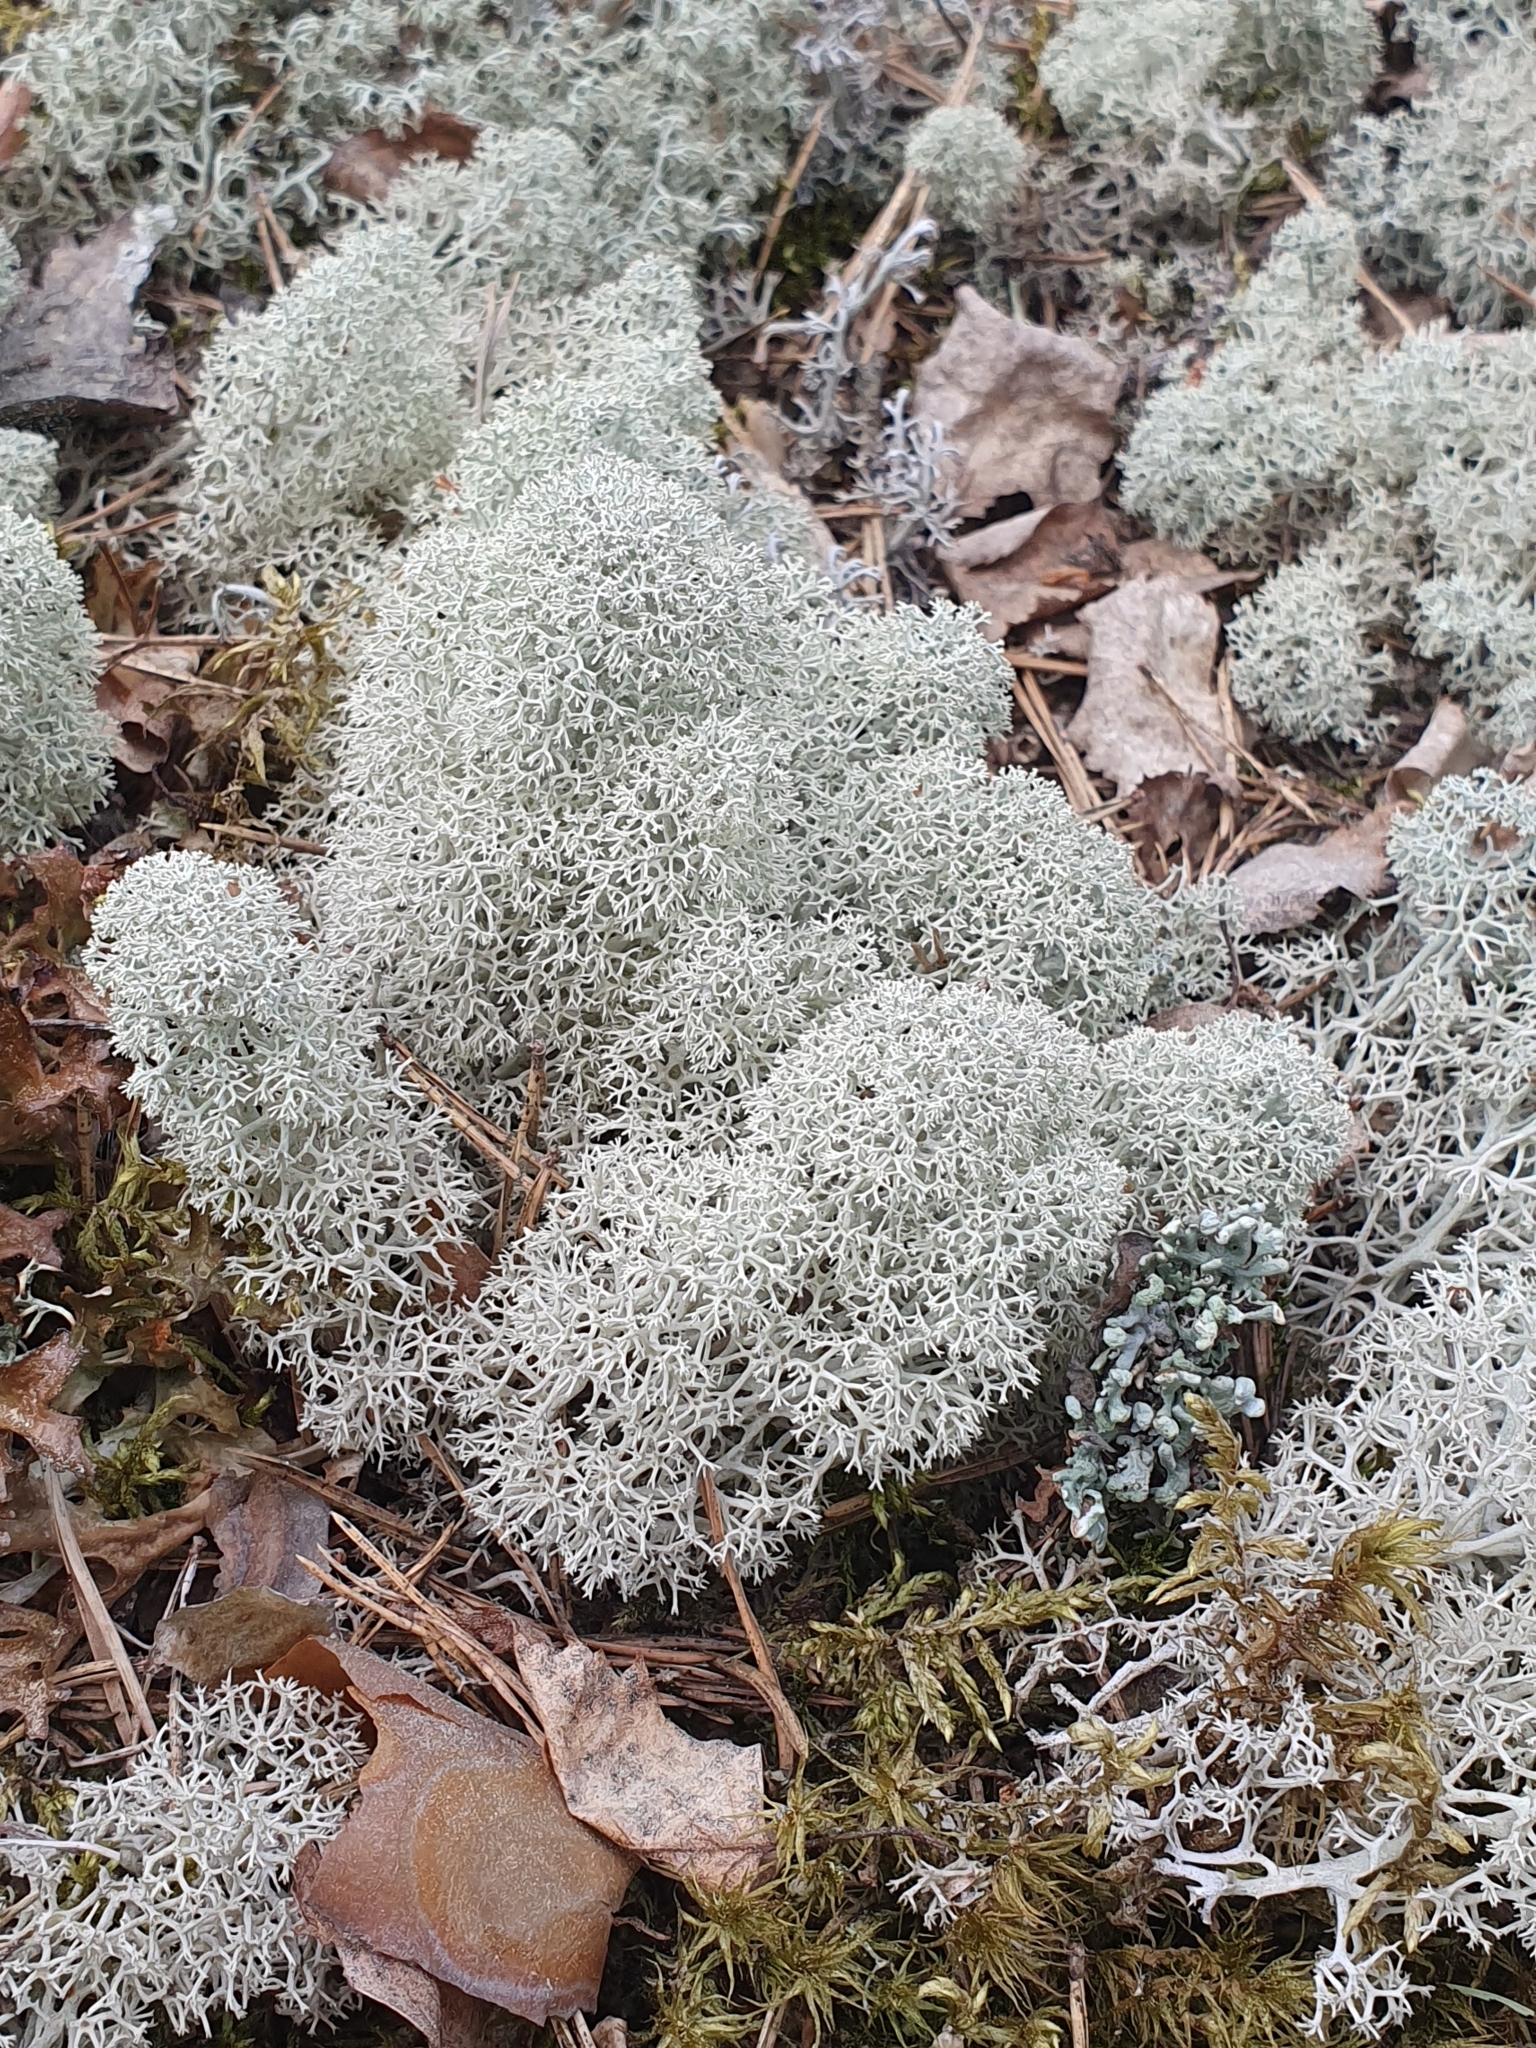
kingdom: Fungi
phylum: Ascomycota
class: Lecanoromycetes
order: Lecanorales
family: Cladoniaceae
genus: Cladonia
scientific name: Cladonia stellaris
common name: Star-tipped reindeer lichen
